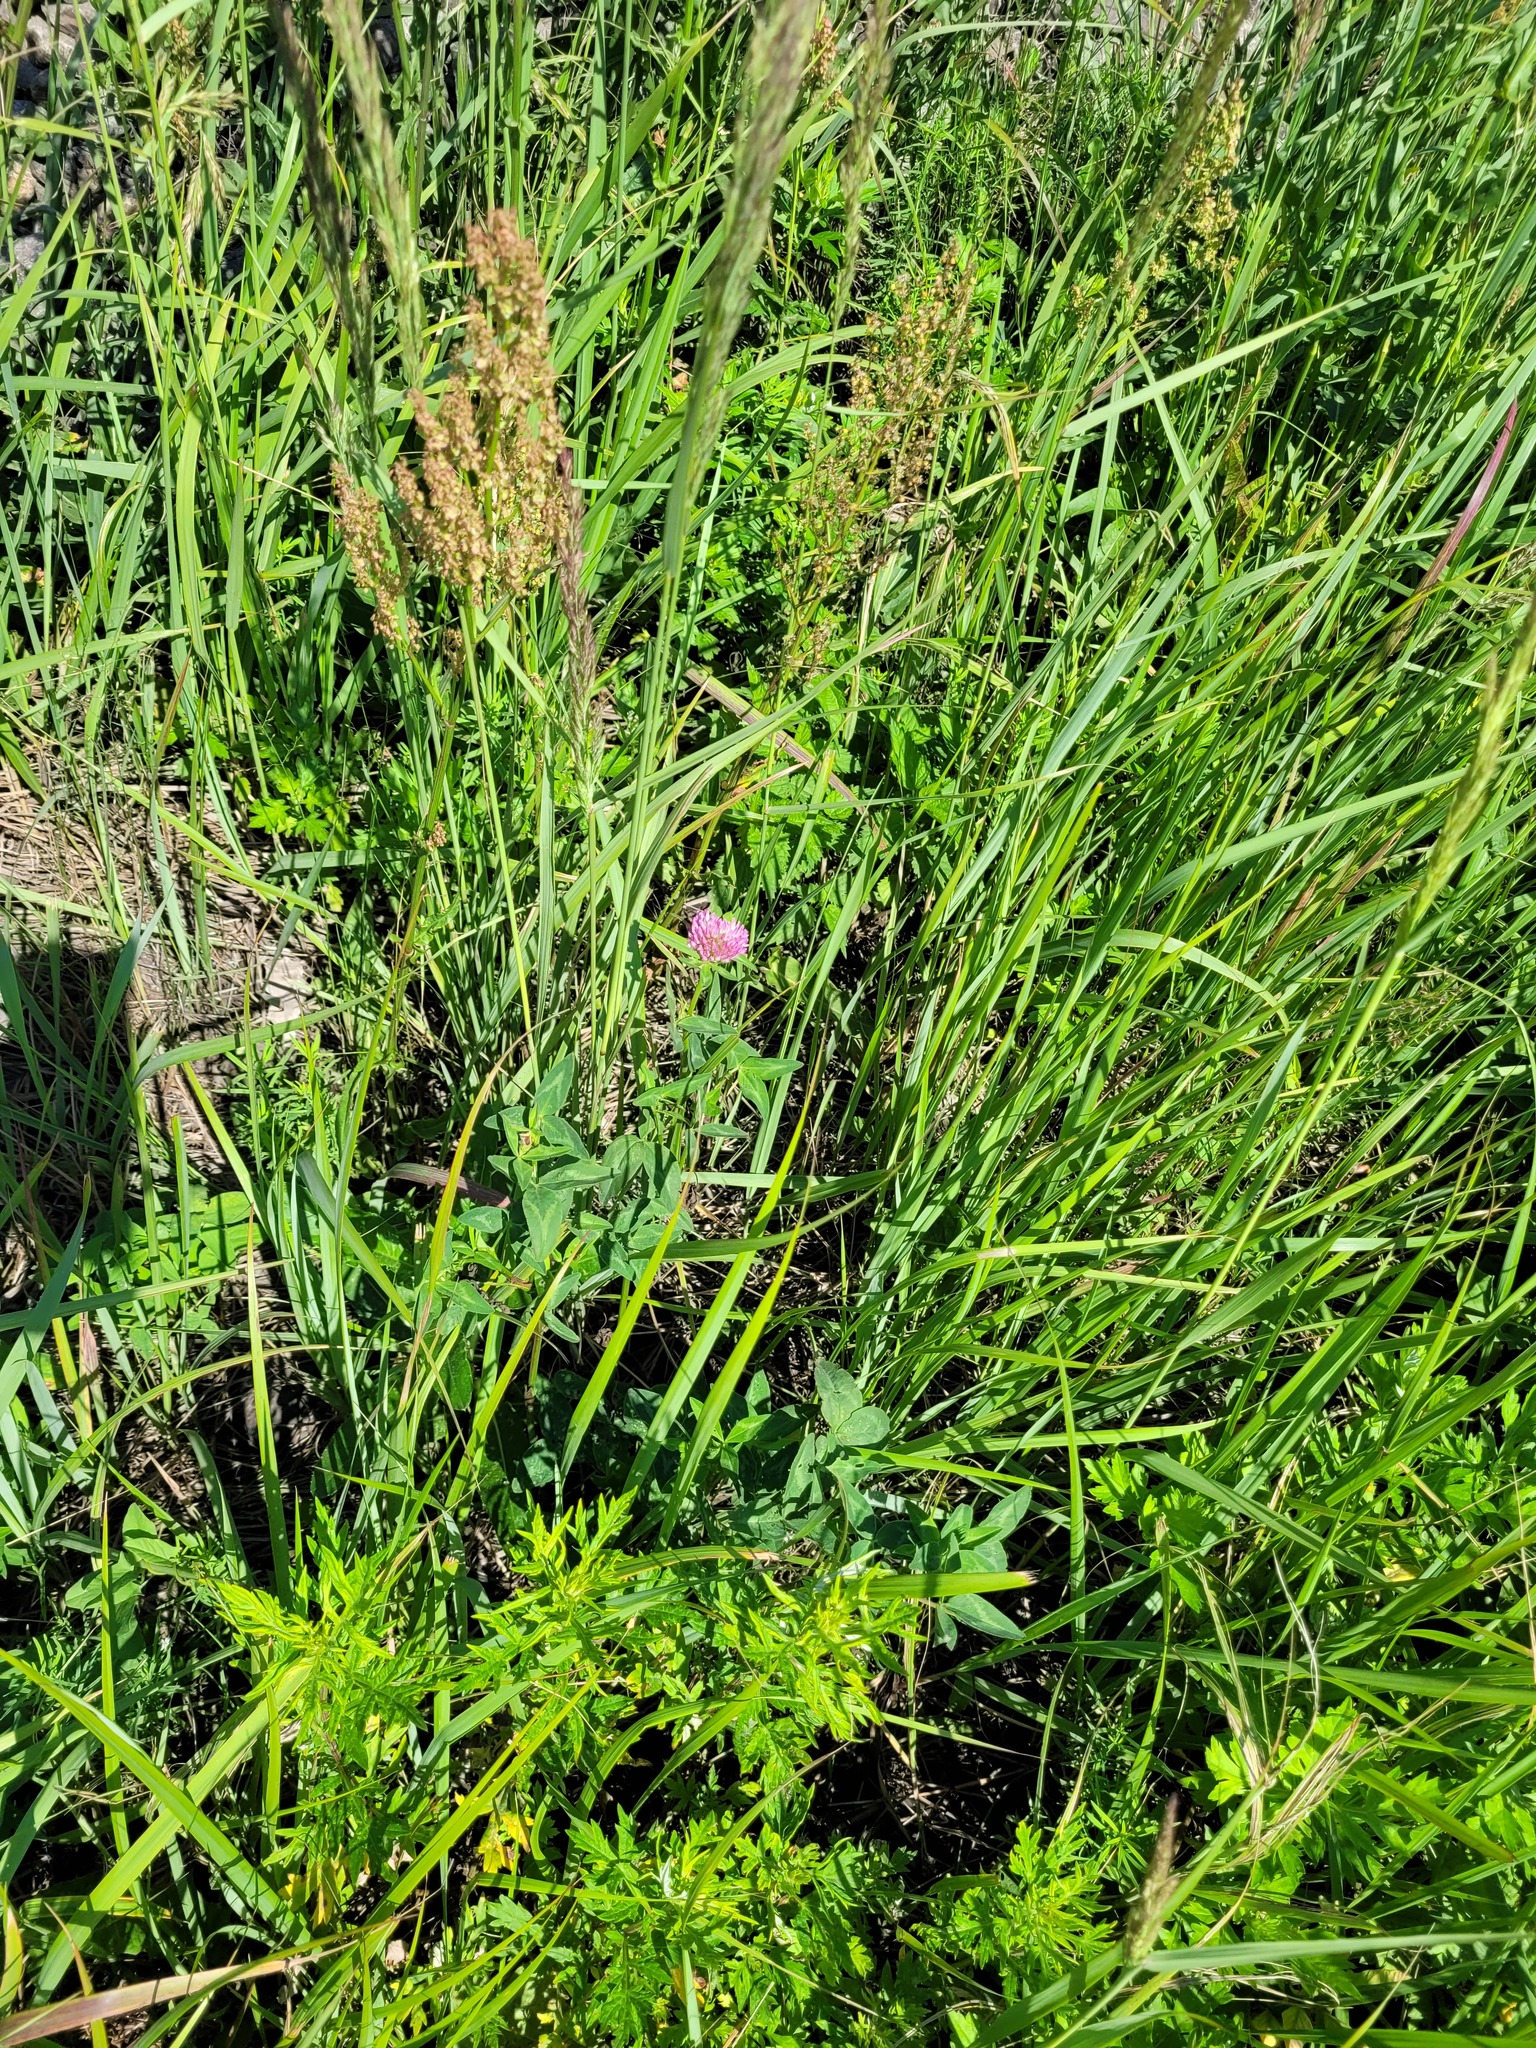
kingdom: Plantae
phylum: Tracheophyta
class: Magnoliopsida
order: Fabales
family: Fabaceae
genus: Trifolium
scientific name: Trifolium pratense
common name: Red clover
